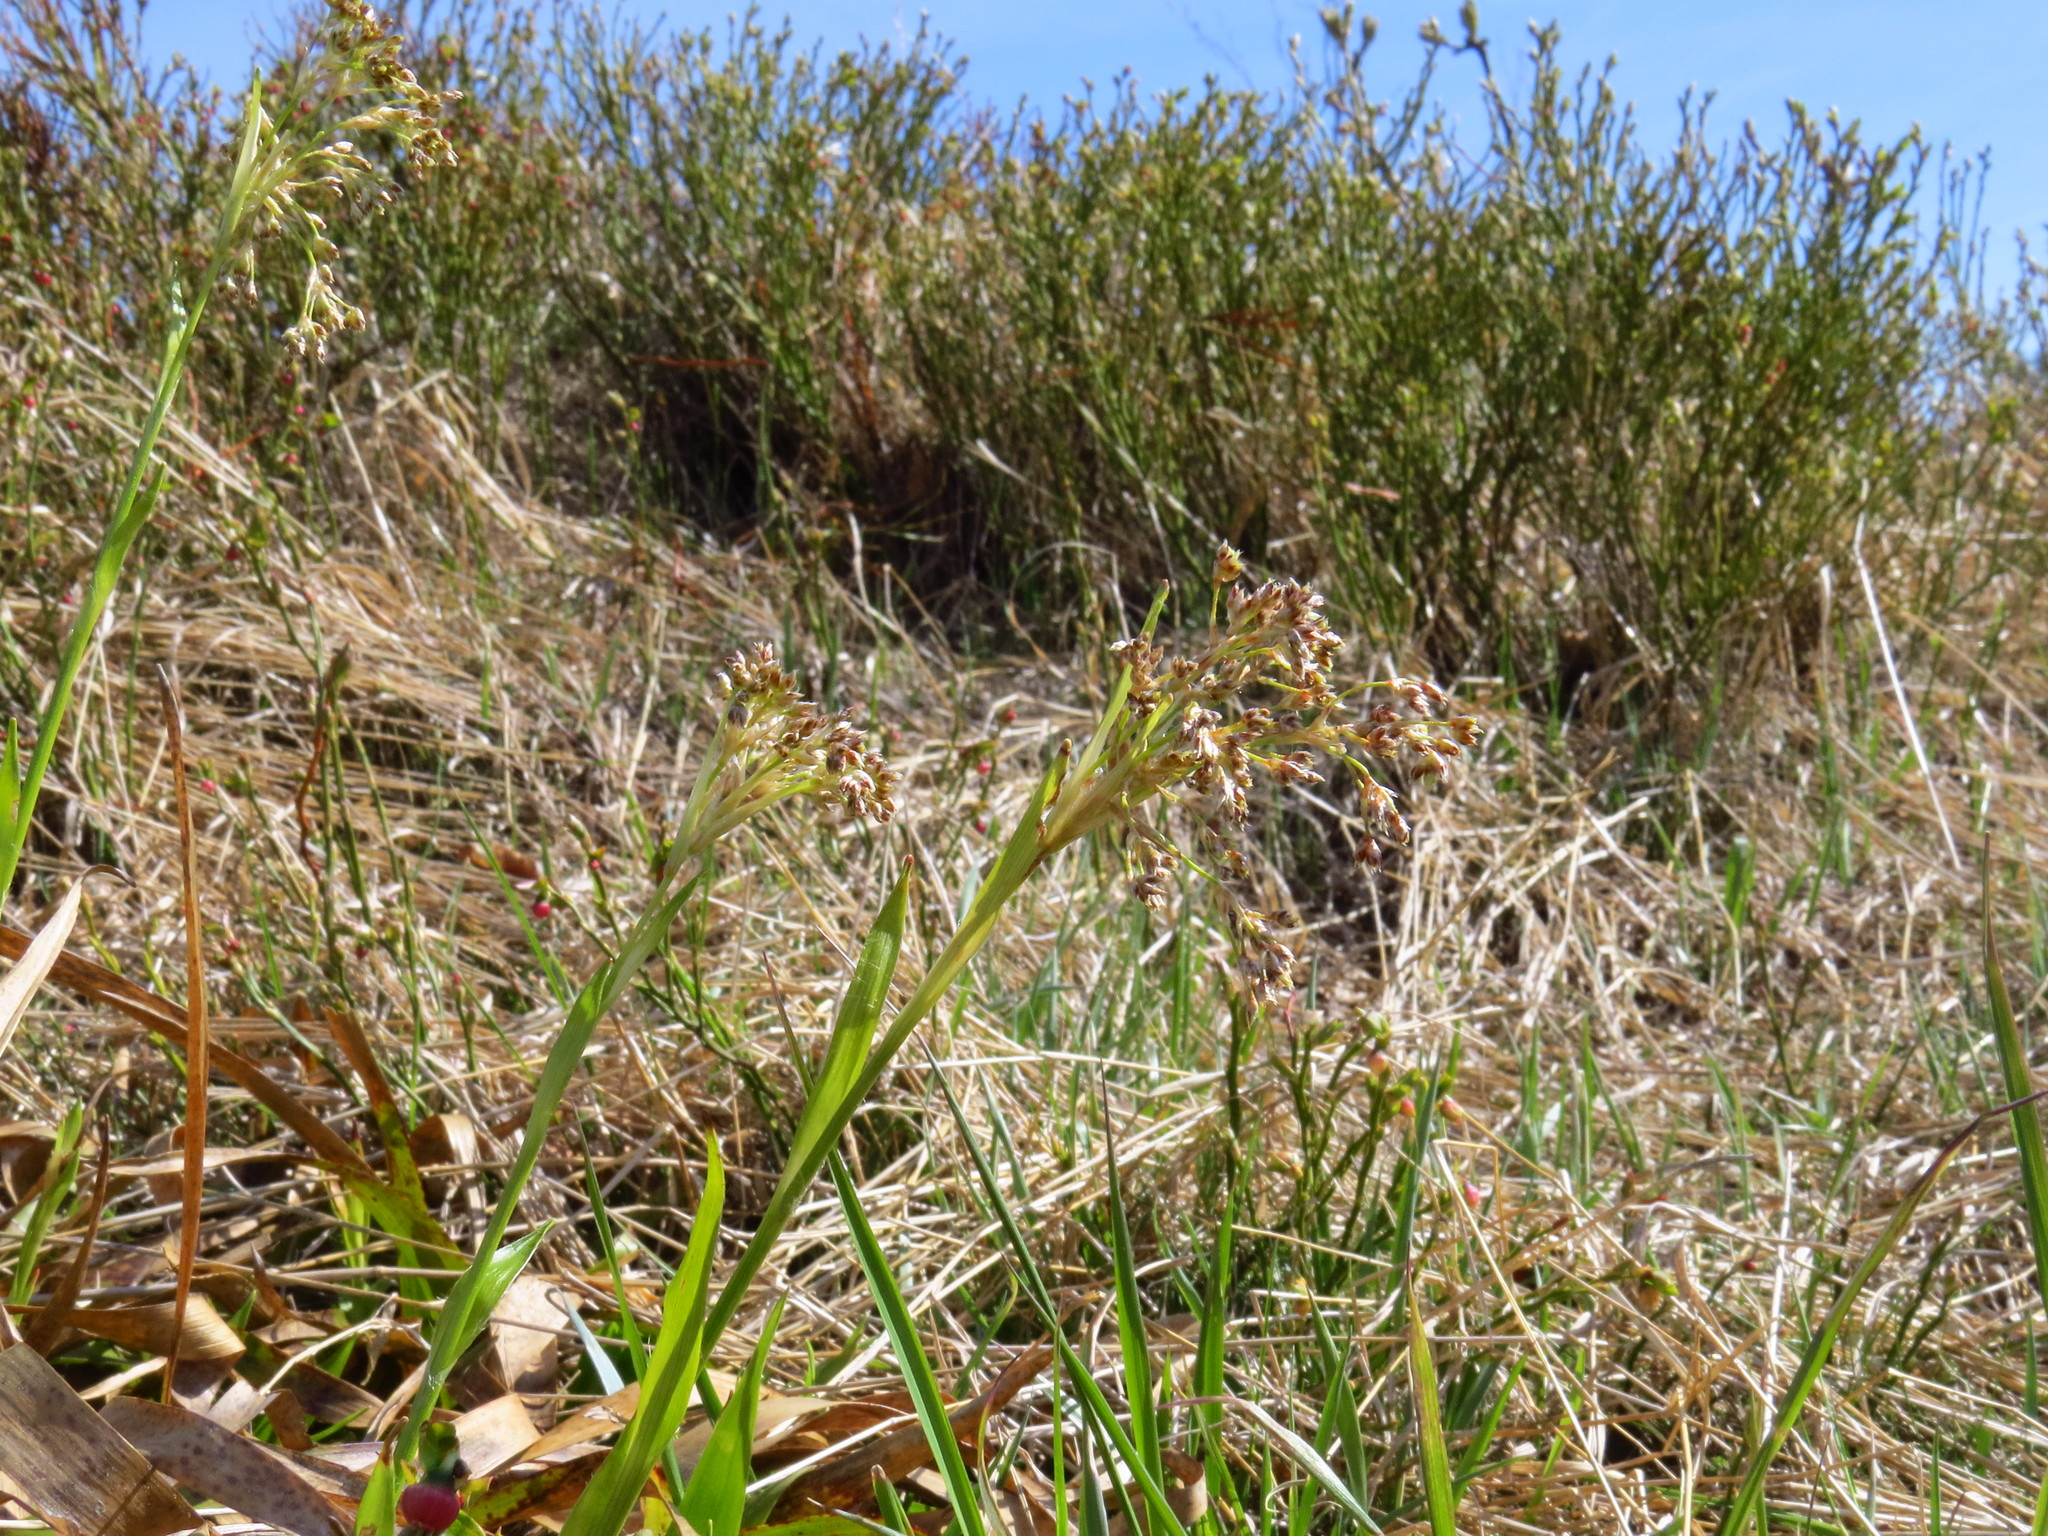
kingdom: Plantae
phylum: Tracheophyta
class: Magnoliopsida
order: Ericales
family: Ericaceae
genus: Vaccinium
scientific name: Vaccinium myrtillus
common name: Bilberry
